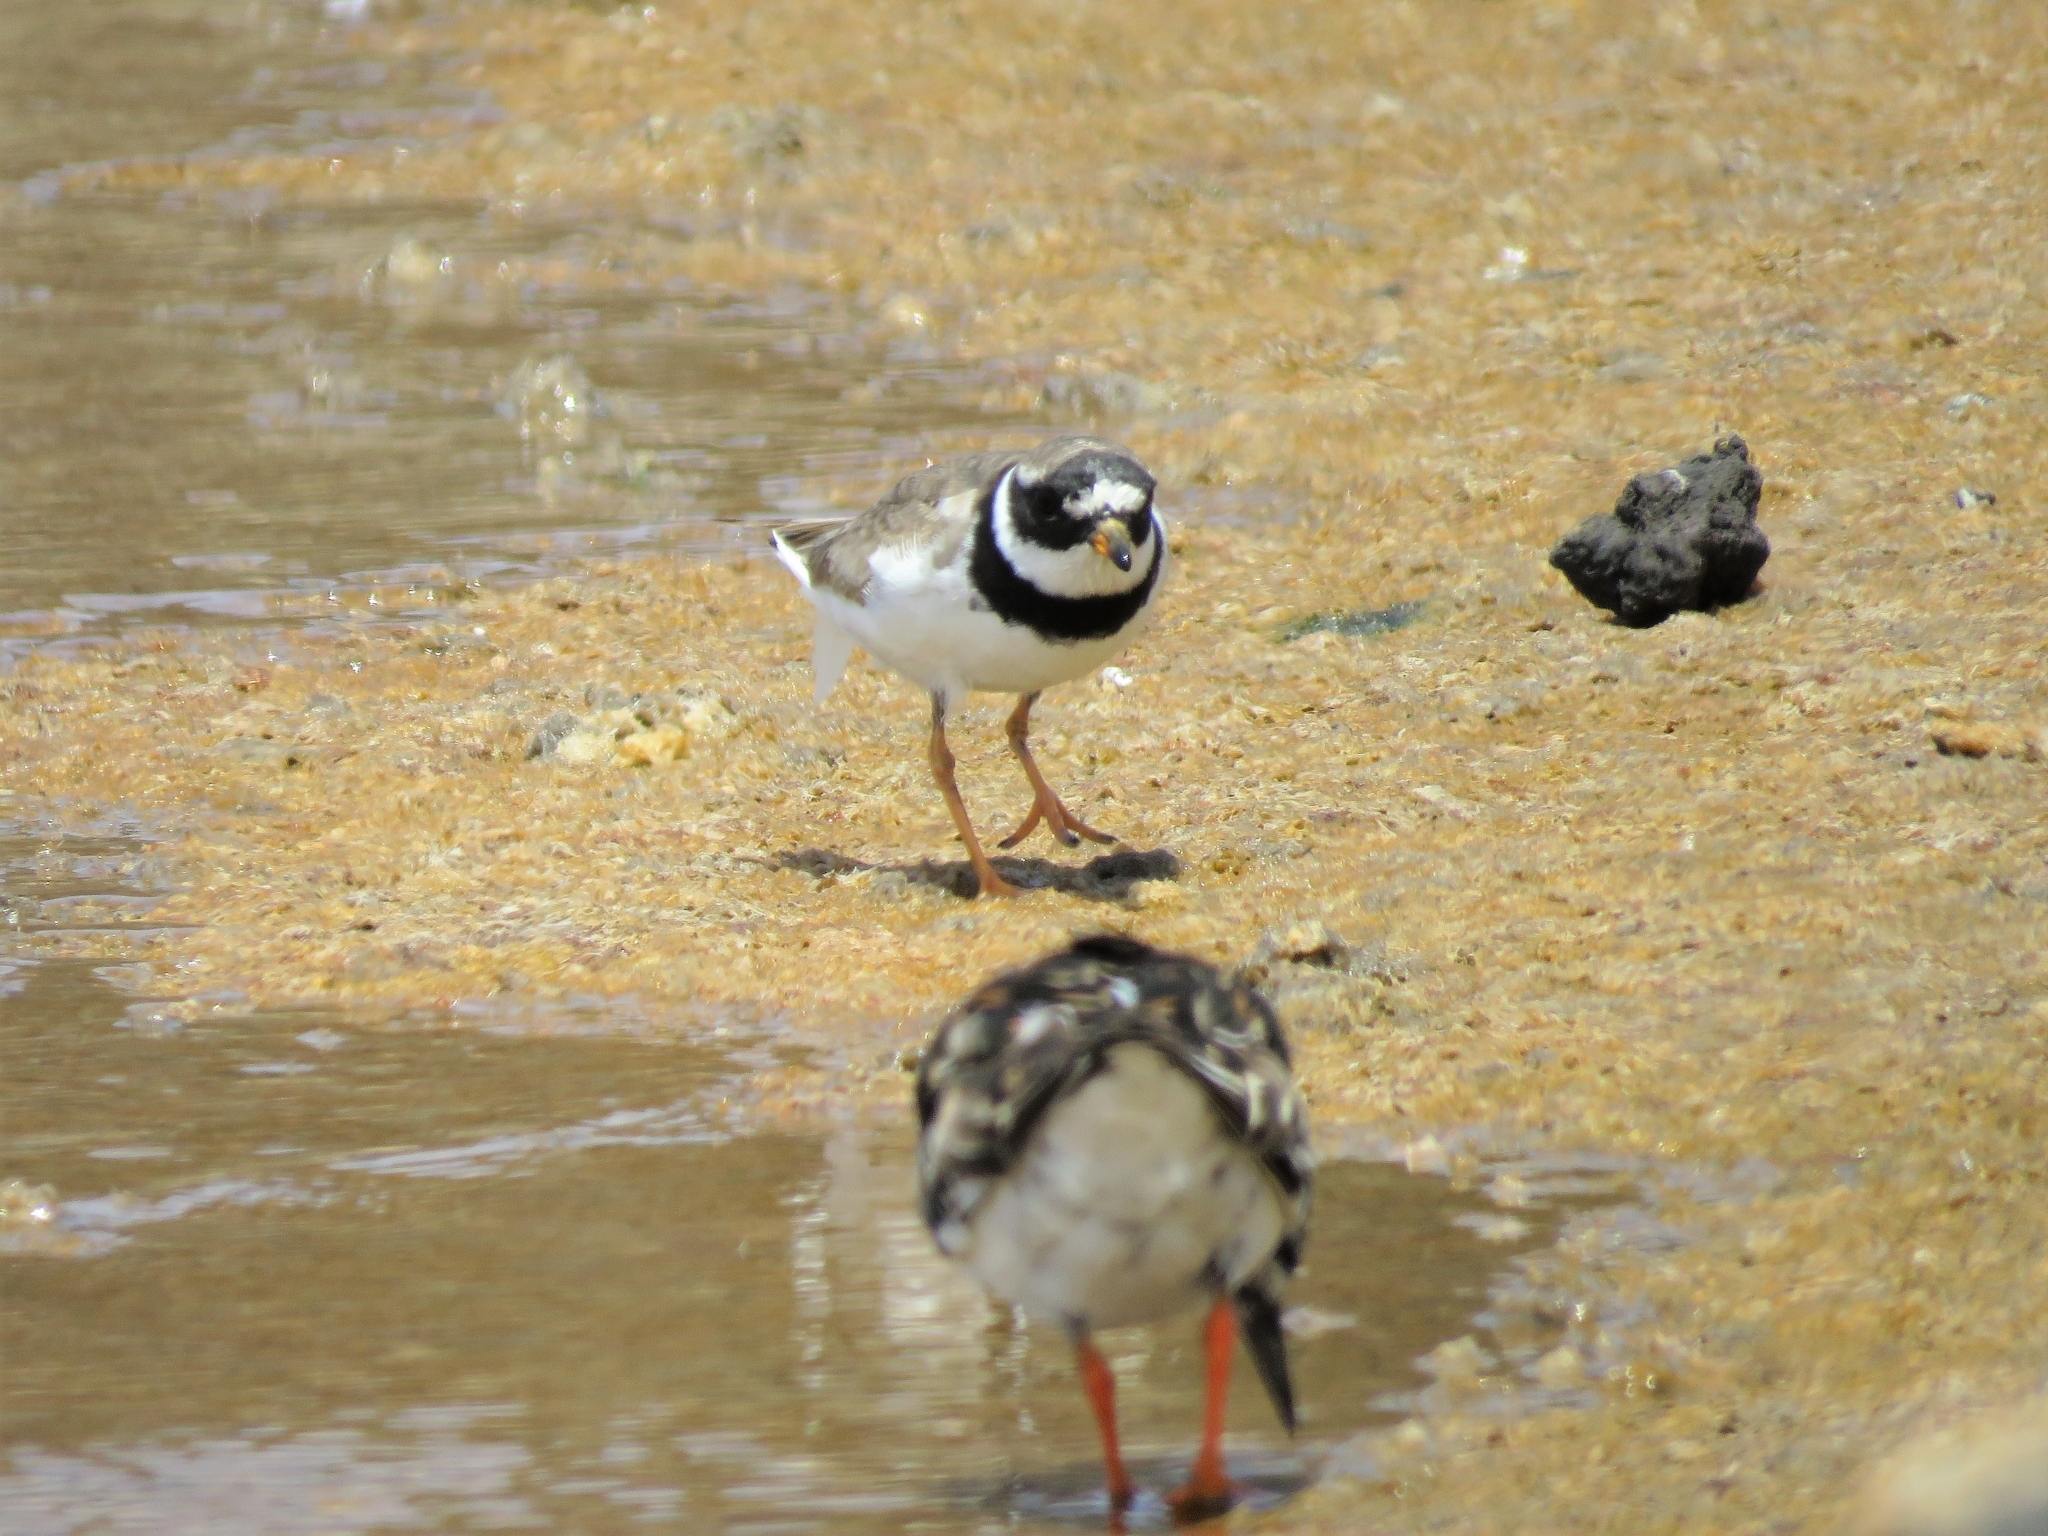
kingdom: Animalia
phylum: Chordata
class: Aves
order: Charadriiformes
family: Charadriidae
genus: Charadrius
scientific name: Charadrius hiaticula
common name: Common ringed plover
